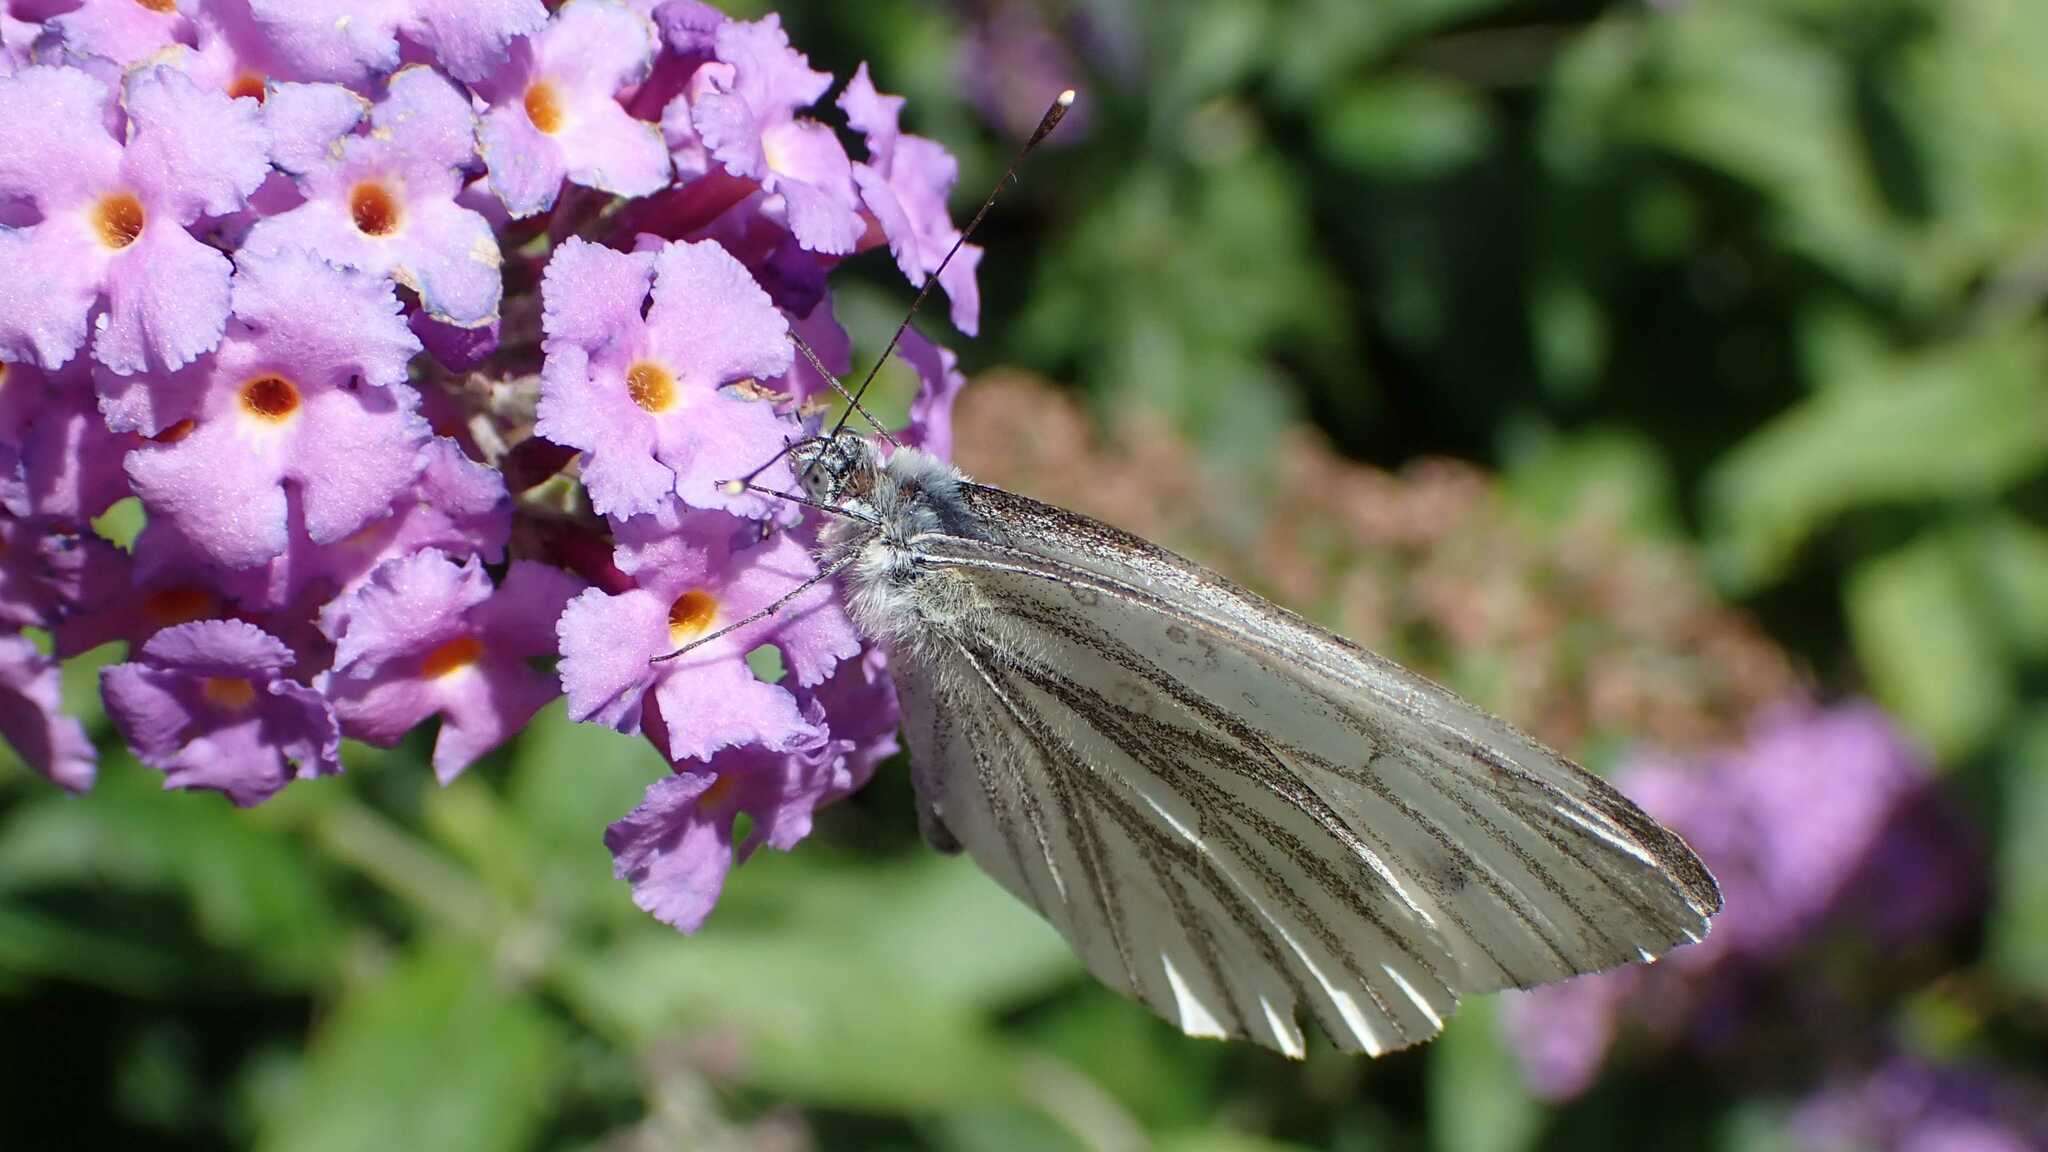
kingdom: Animalia
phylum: Arthropoda
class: Insecta
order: Lepidoptera
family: Pieridae
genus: Pieris
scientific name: Pieris napi
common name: Green-veined white
